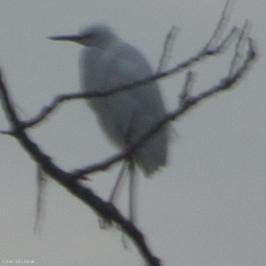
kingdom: Animalia
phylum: Chordata
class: Aves
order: Pelecaniformes
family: Ardeidae
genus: Egretta
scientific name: Egretta thula
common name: Snowy egret
